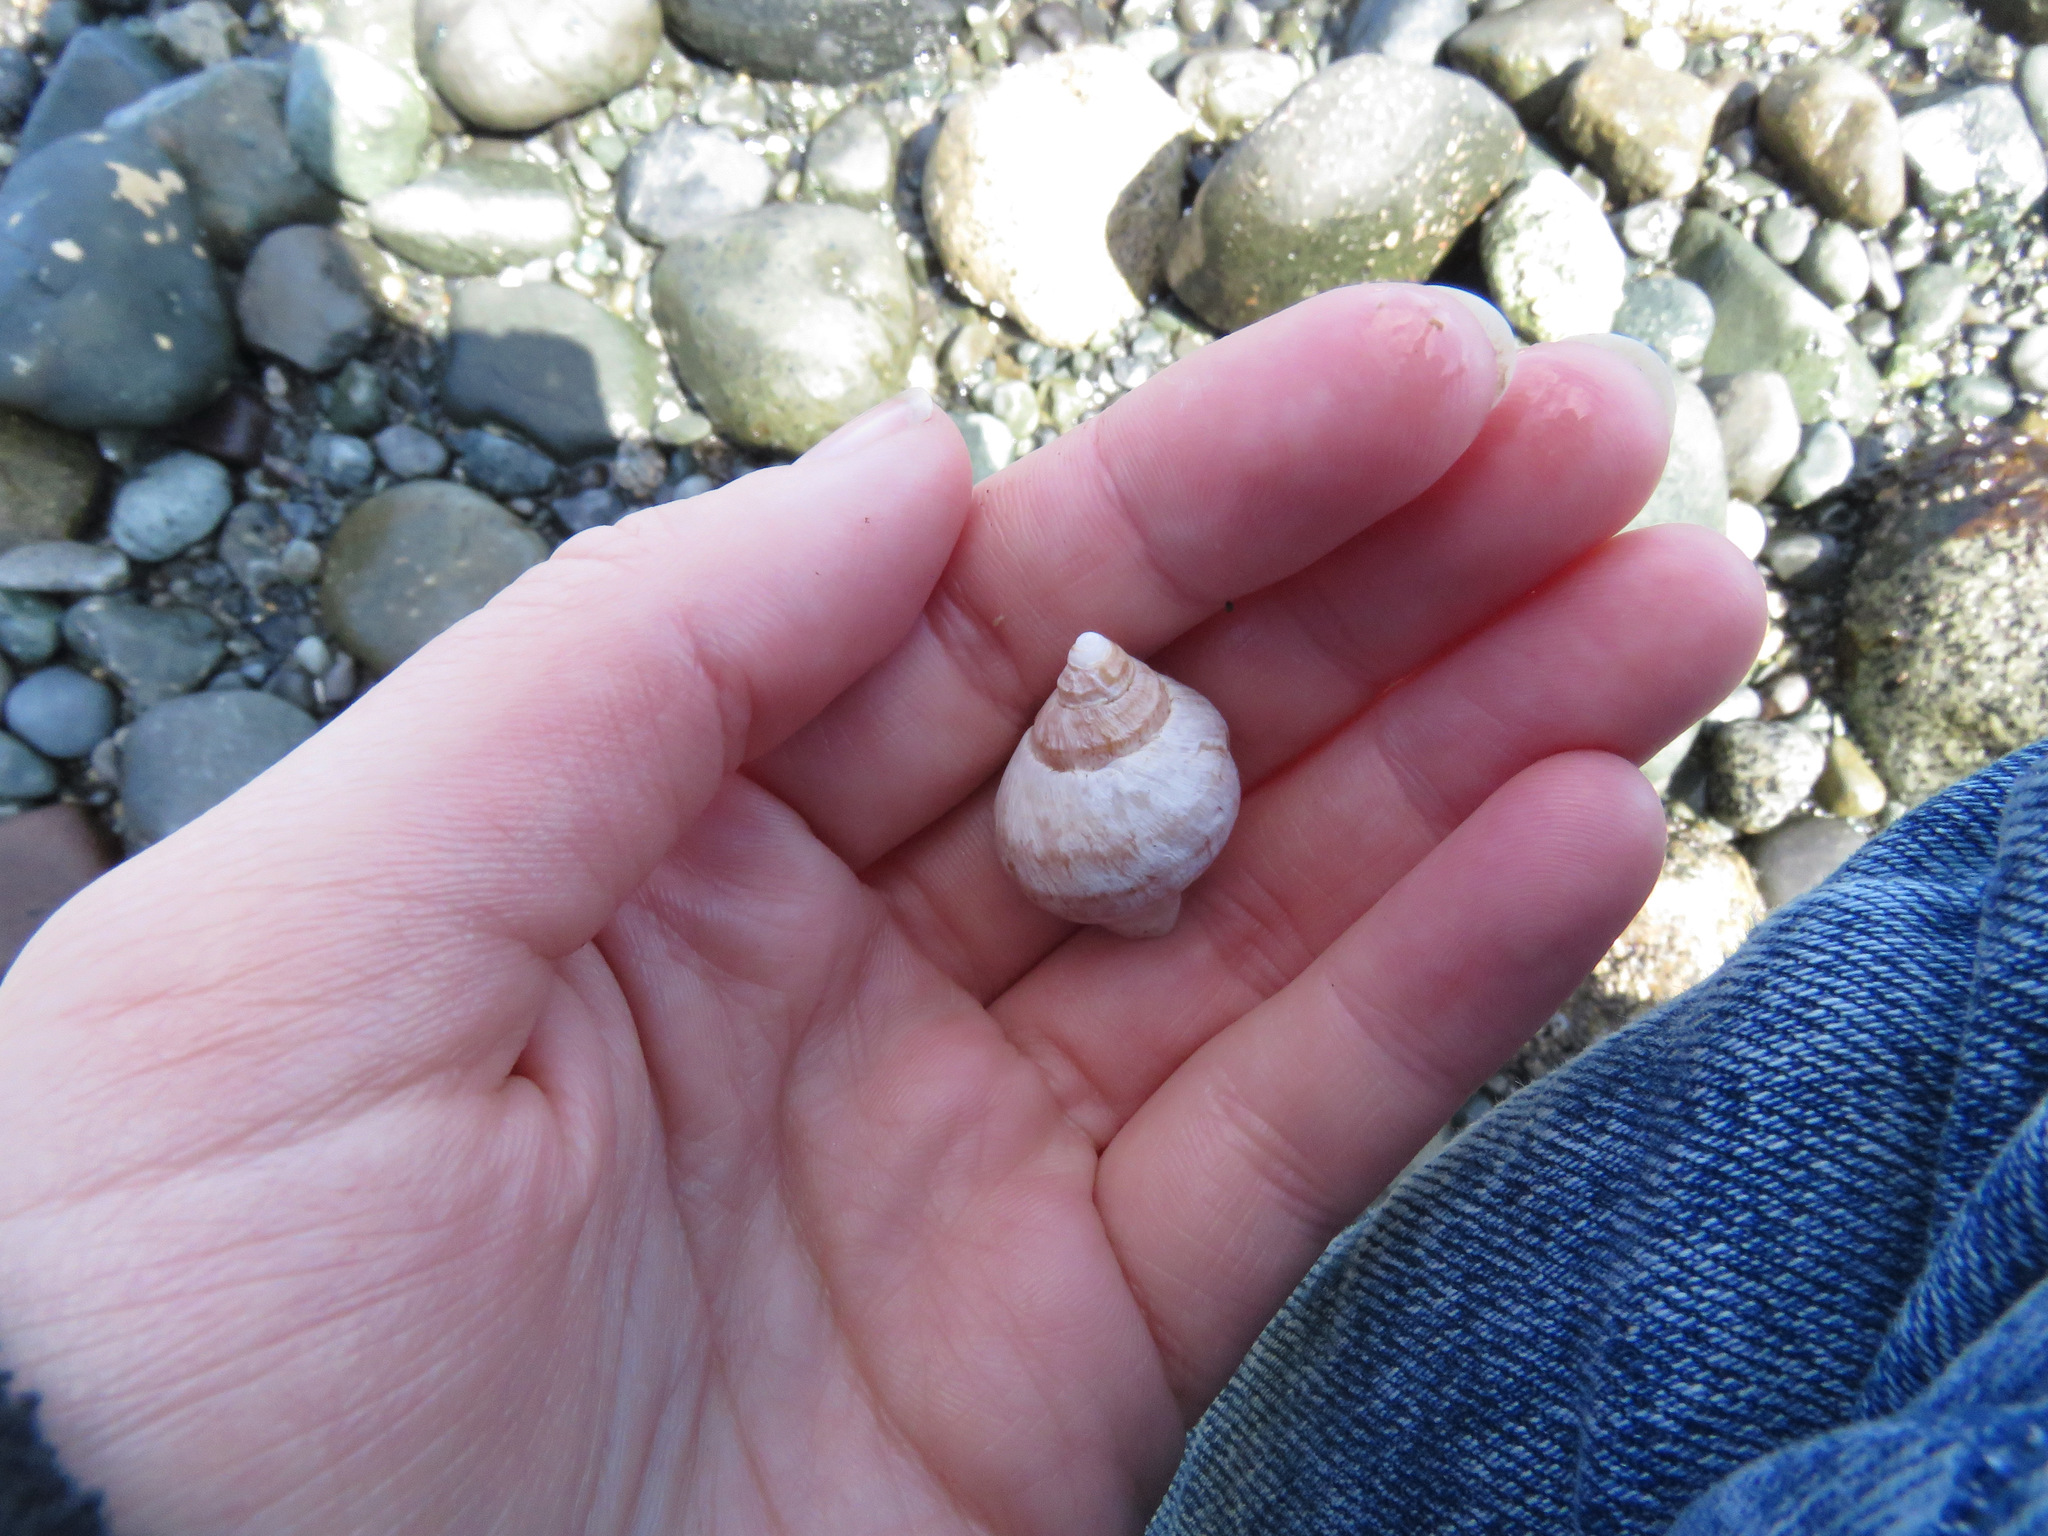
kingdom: Animalia
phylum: Mollusca
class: Gastropoda
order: Neogastropoda
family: Muricidae
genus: Nucella
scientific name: Nucella lamellosa
